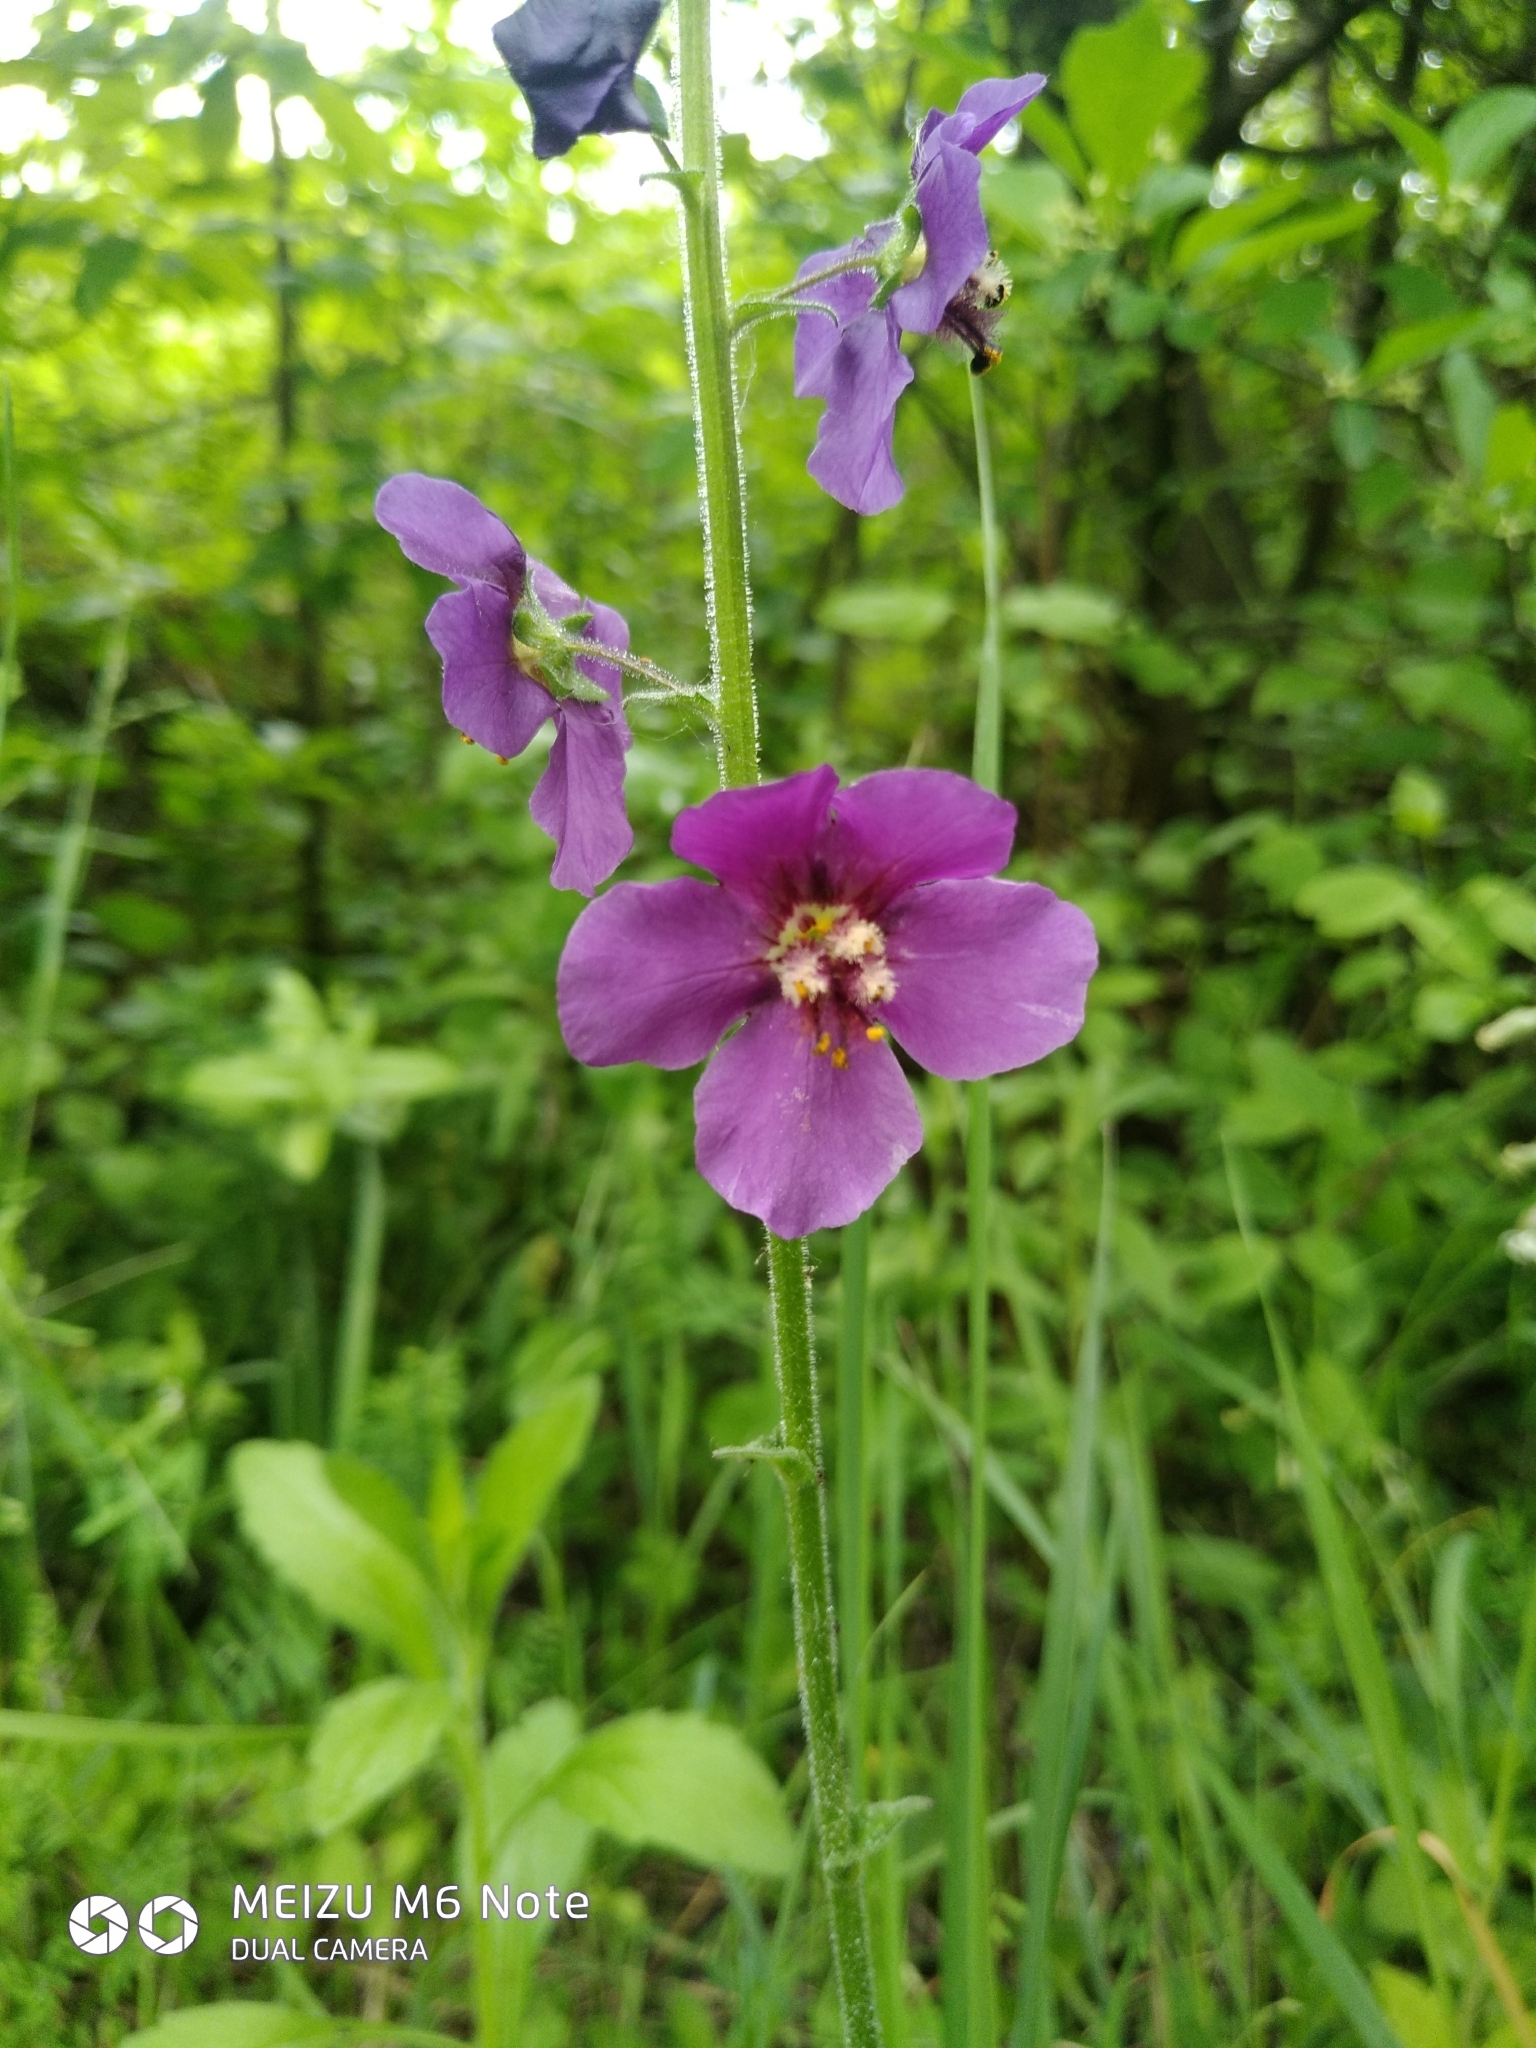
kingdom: Plantae
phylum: Tracheophyta
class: Magnoliopsida
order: Lamiales
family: Scrophulariaceae
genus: Verbascum
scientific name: Verbascum phoeniceum
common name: Purple mullein
